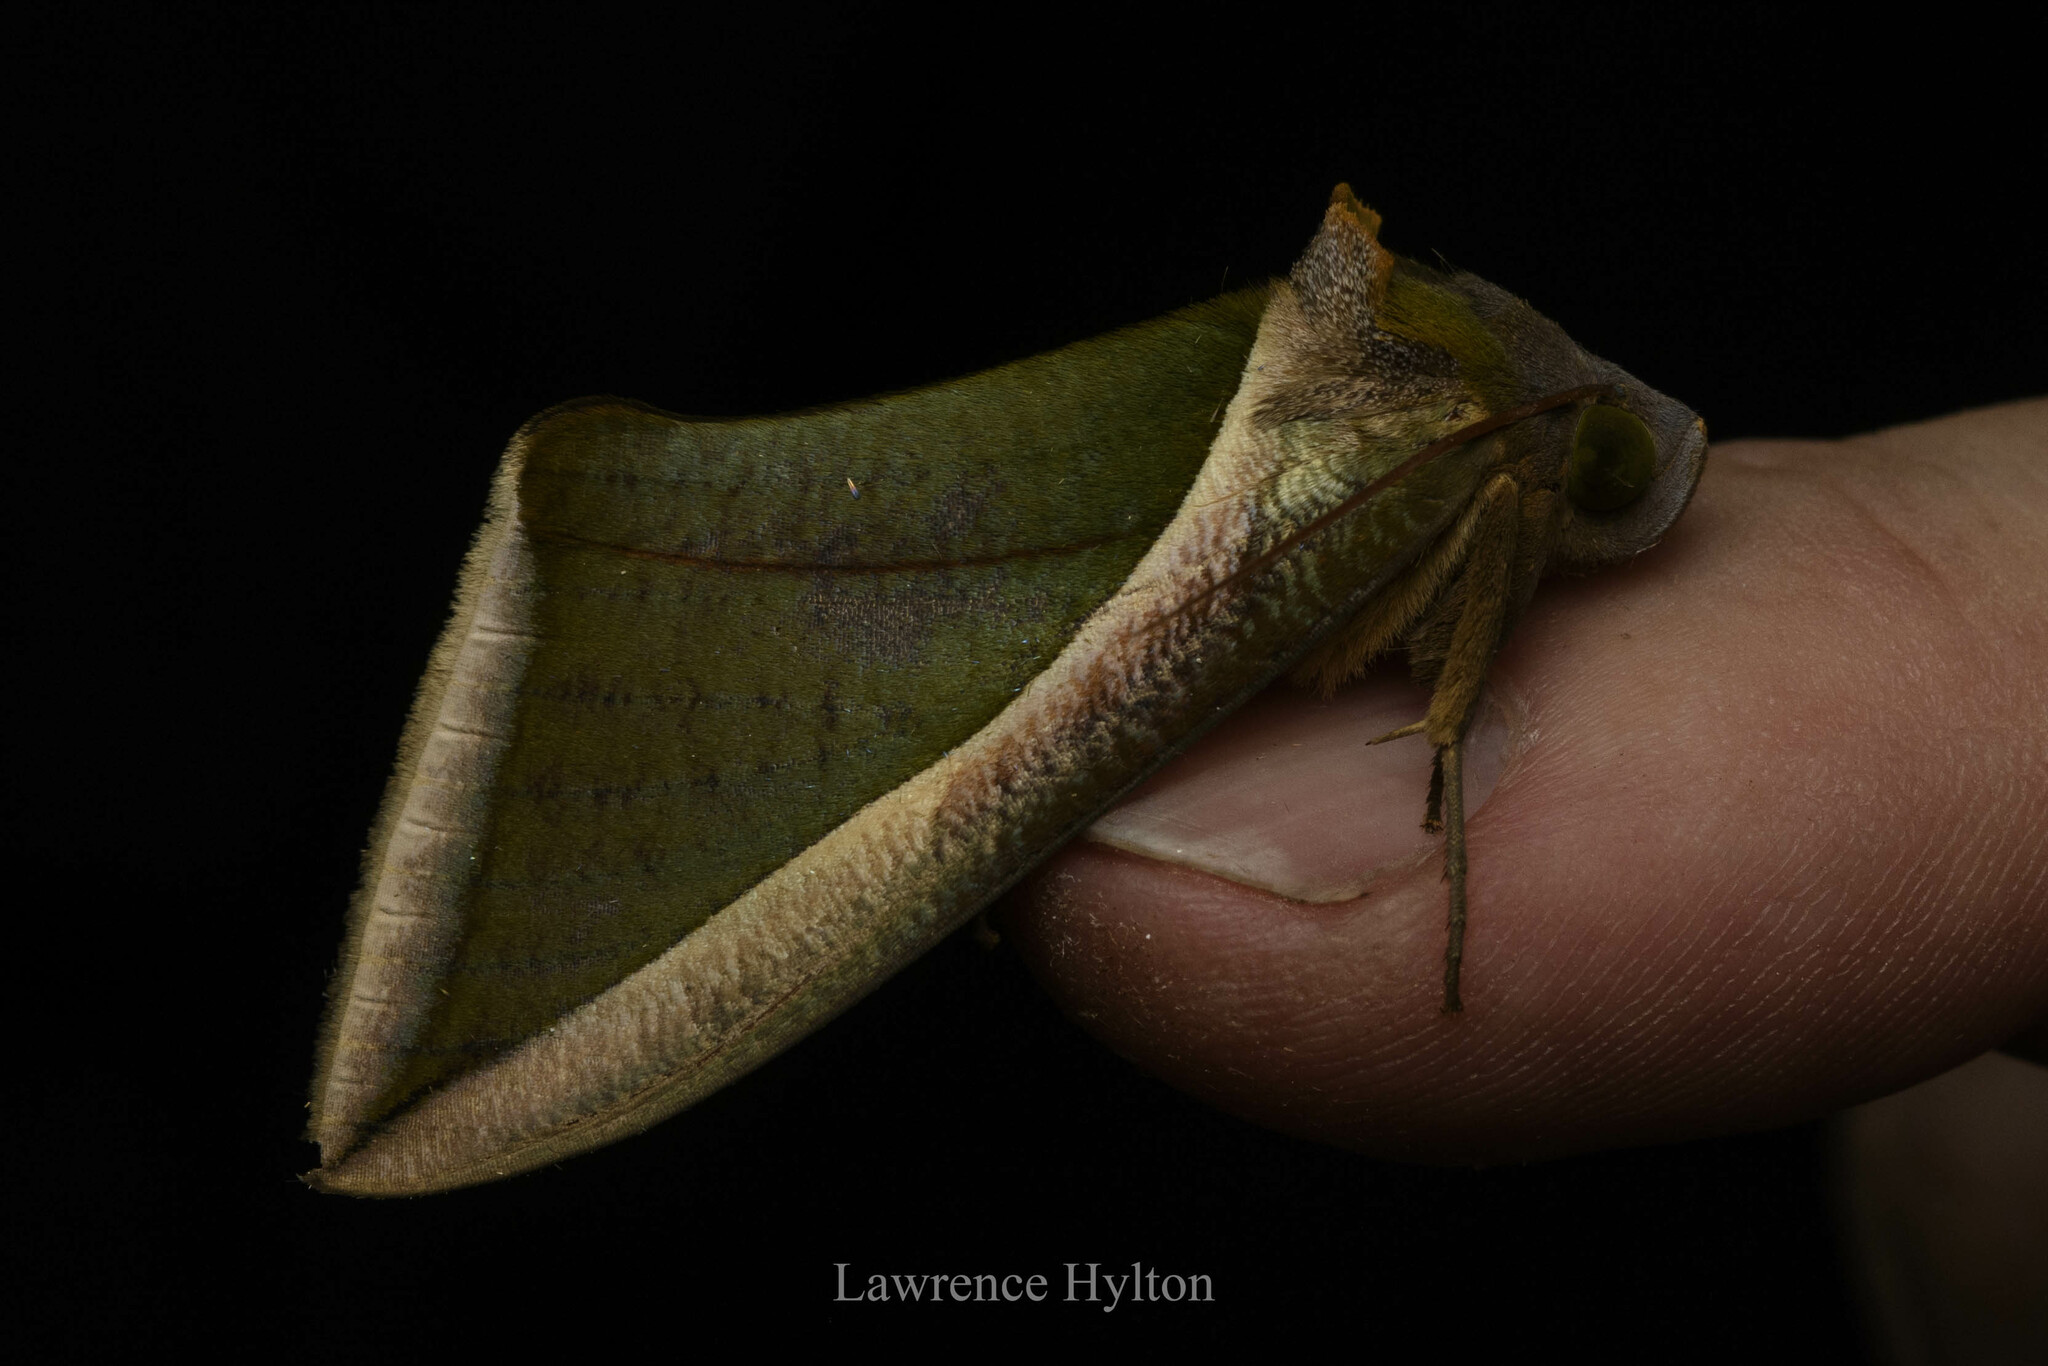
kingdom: Animalia
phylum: Arthropoda
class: Insecta
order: Lepidoptera
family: Erebidae
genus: Eudocima
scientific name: Eudocima salaminia
